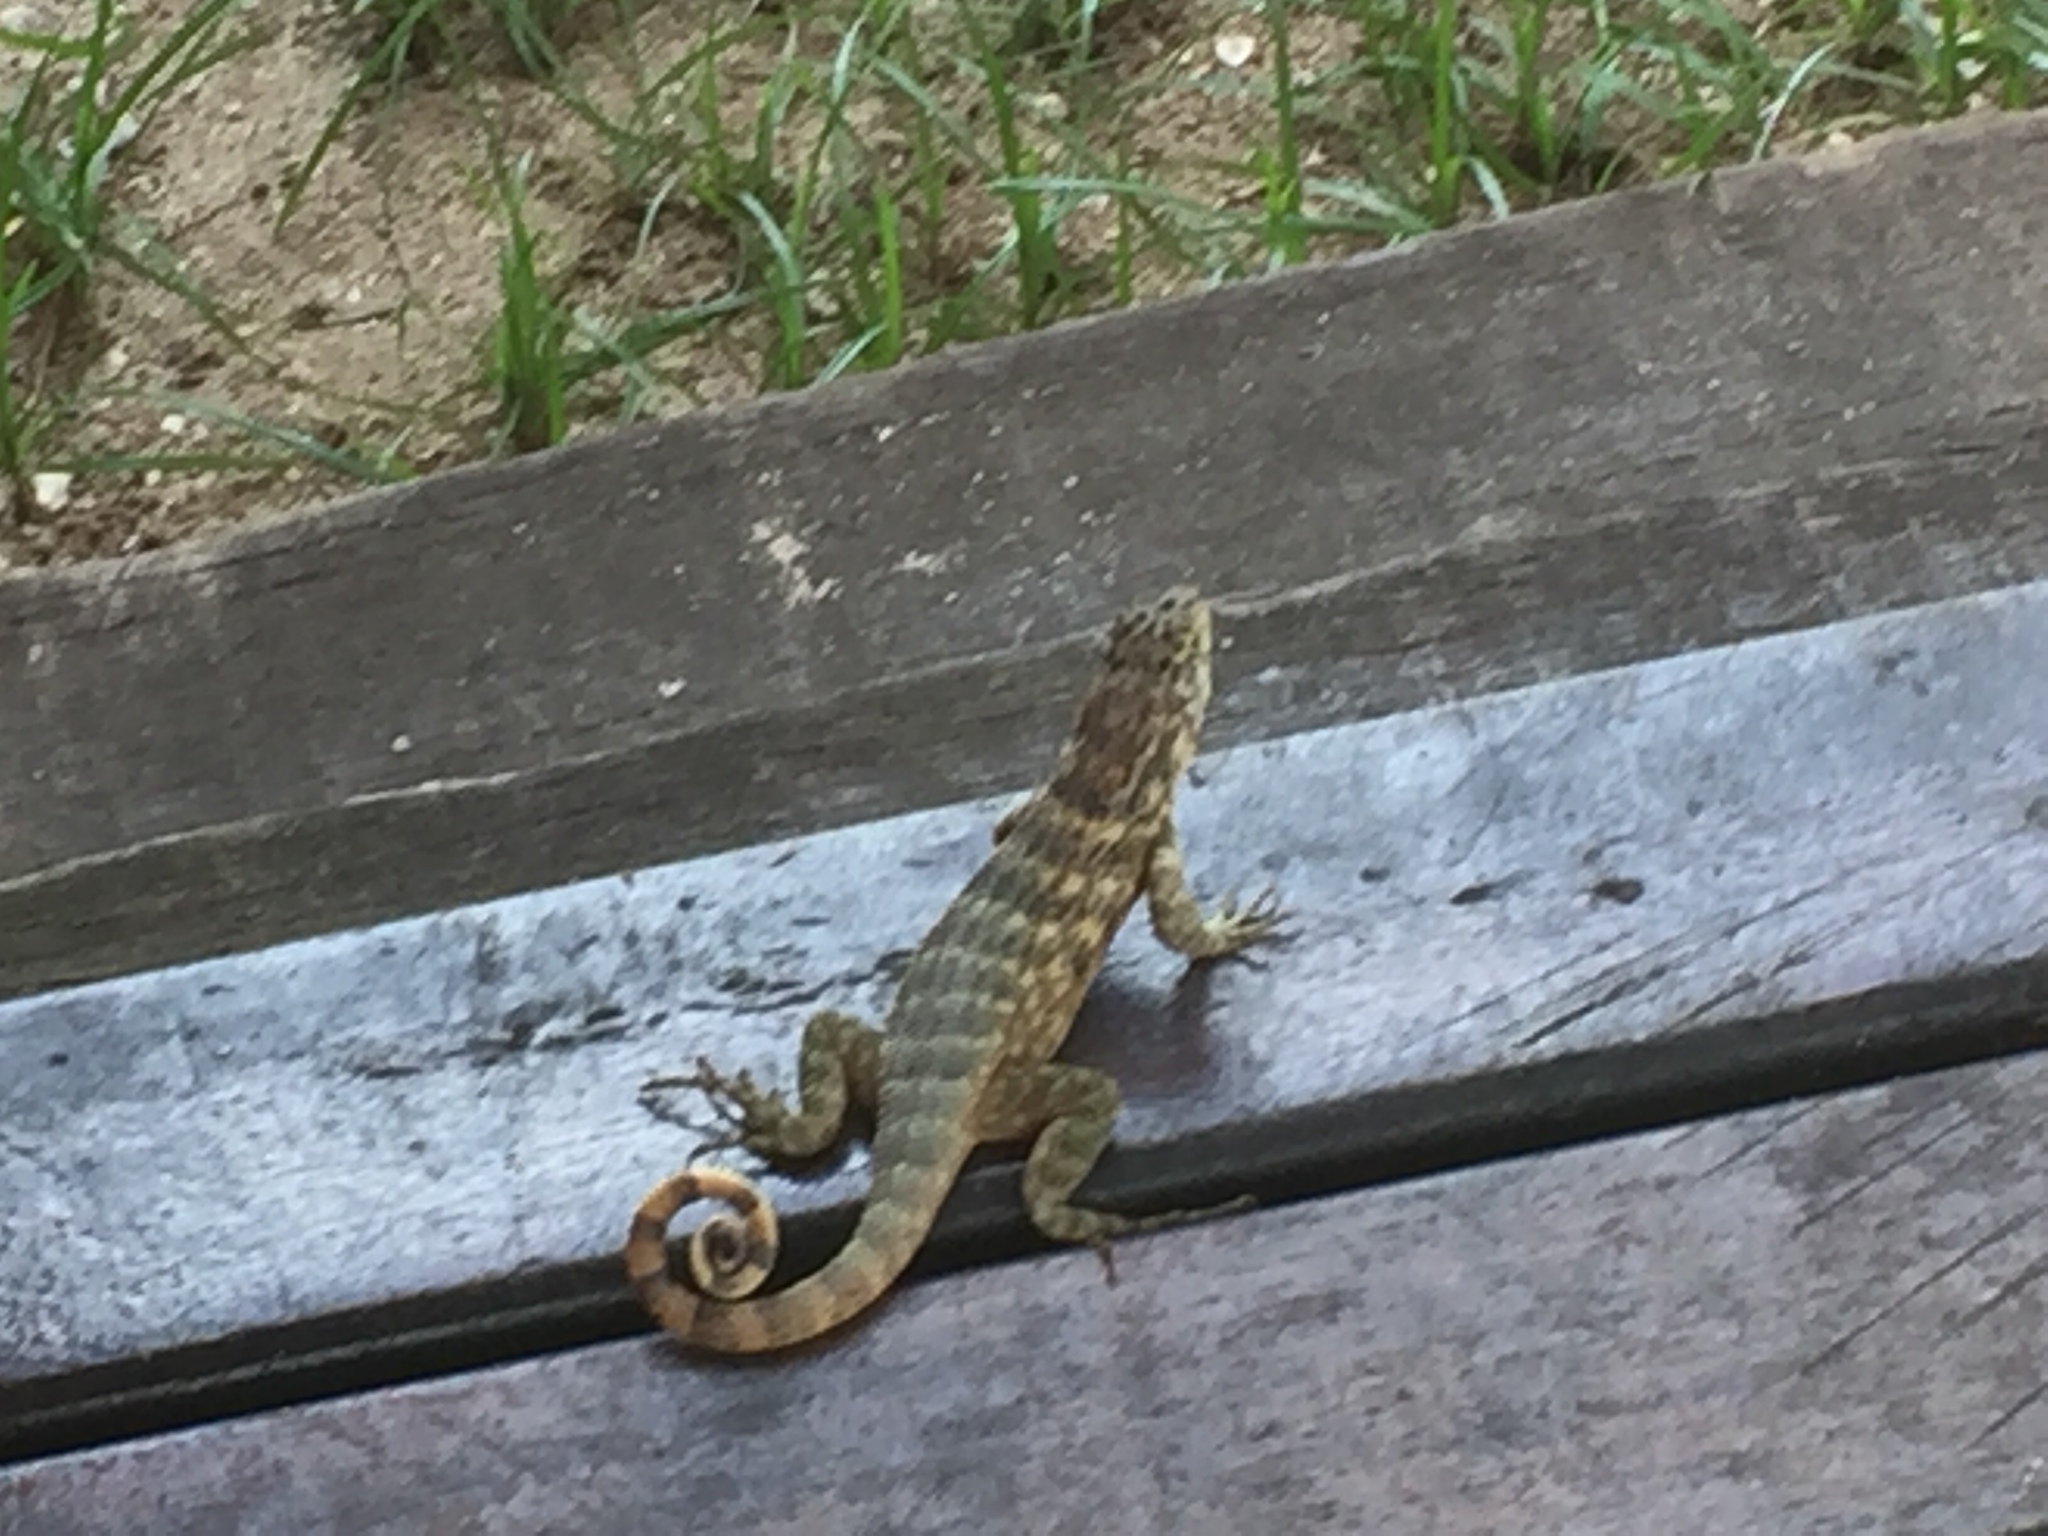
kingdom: Animalia
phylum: Chordata
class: Squamata
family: Leiocephalidae
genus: Leiocephalus
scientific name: Leiocephalus carinatus
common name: Northern curly-tailed lizard
